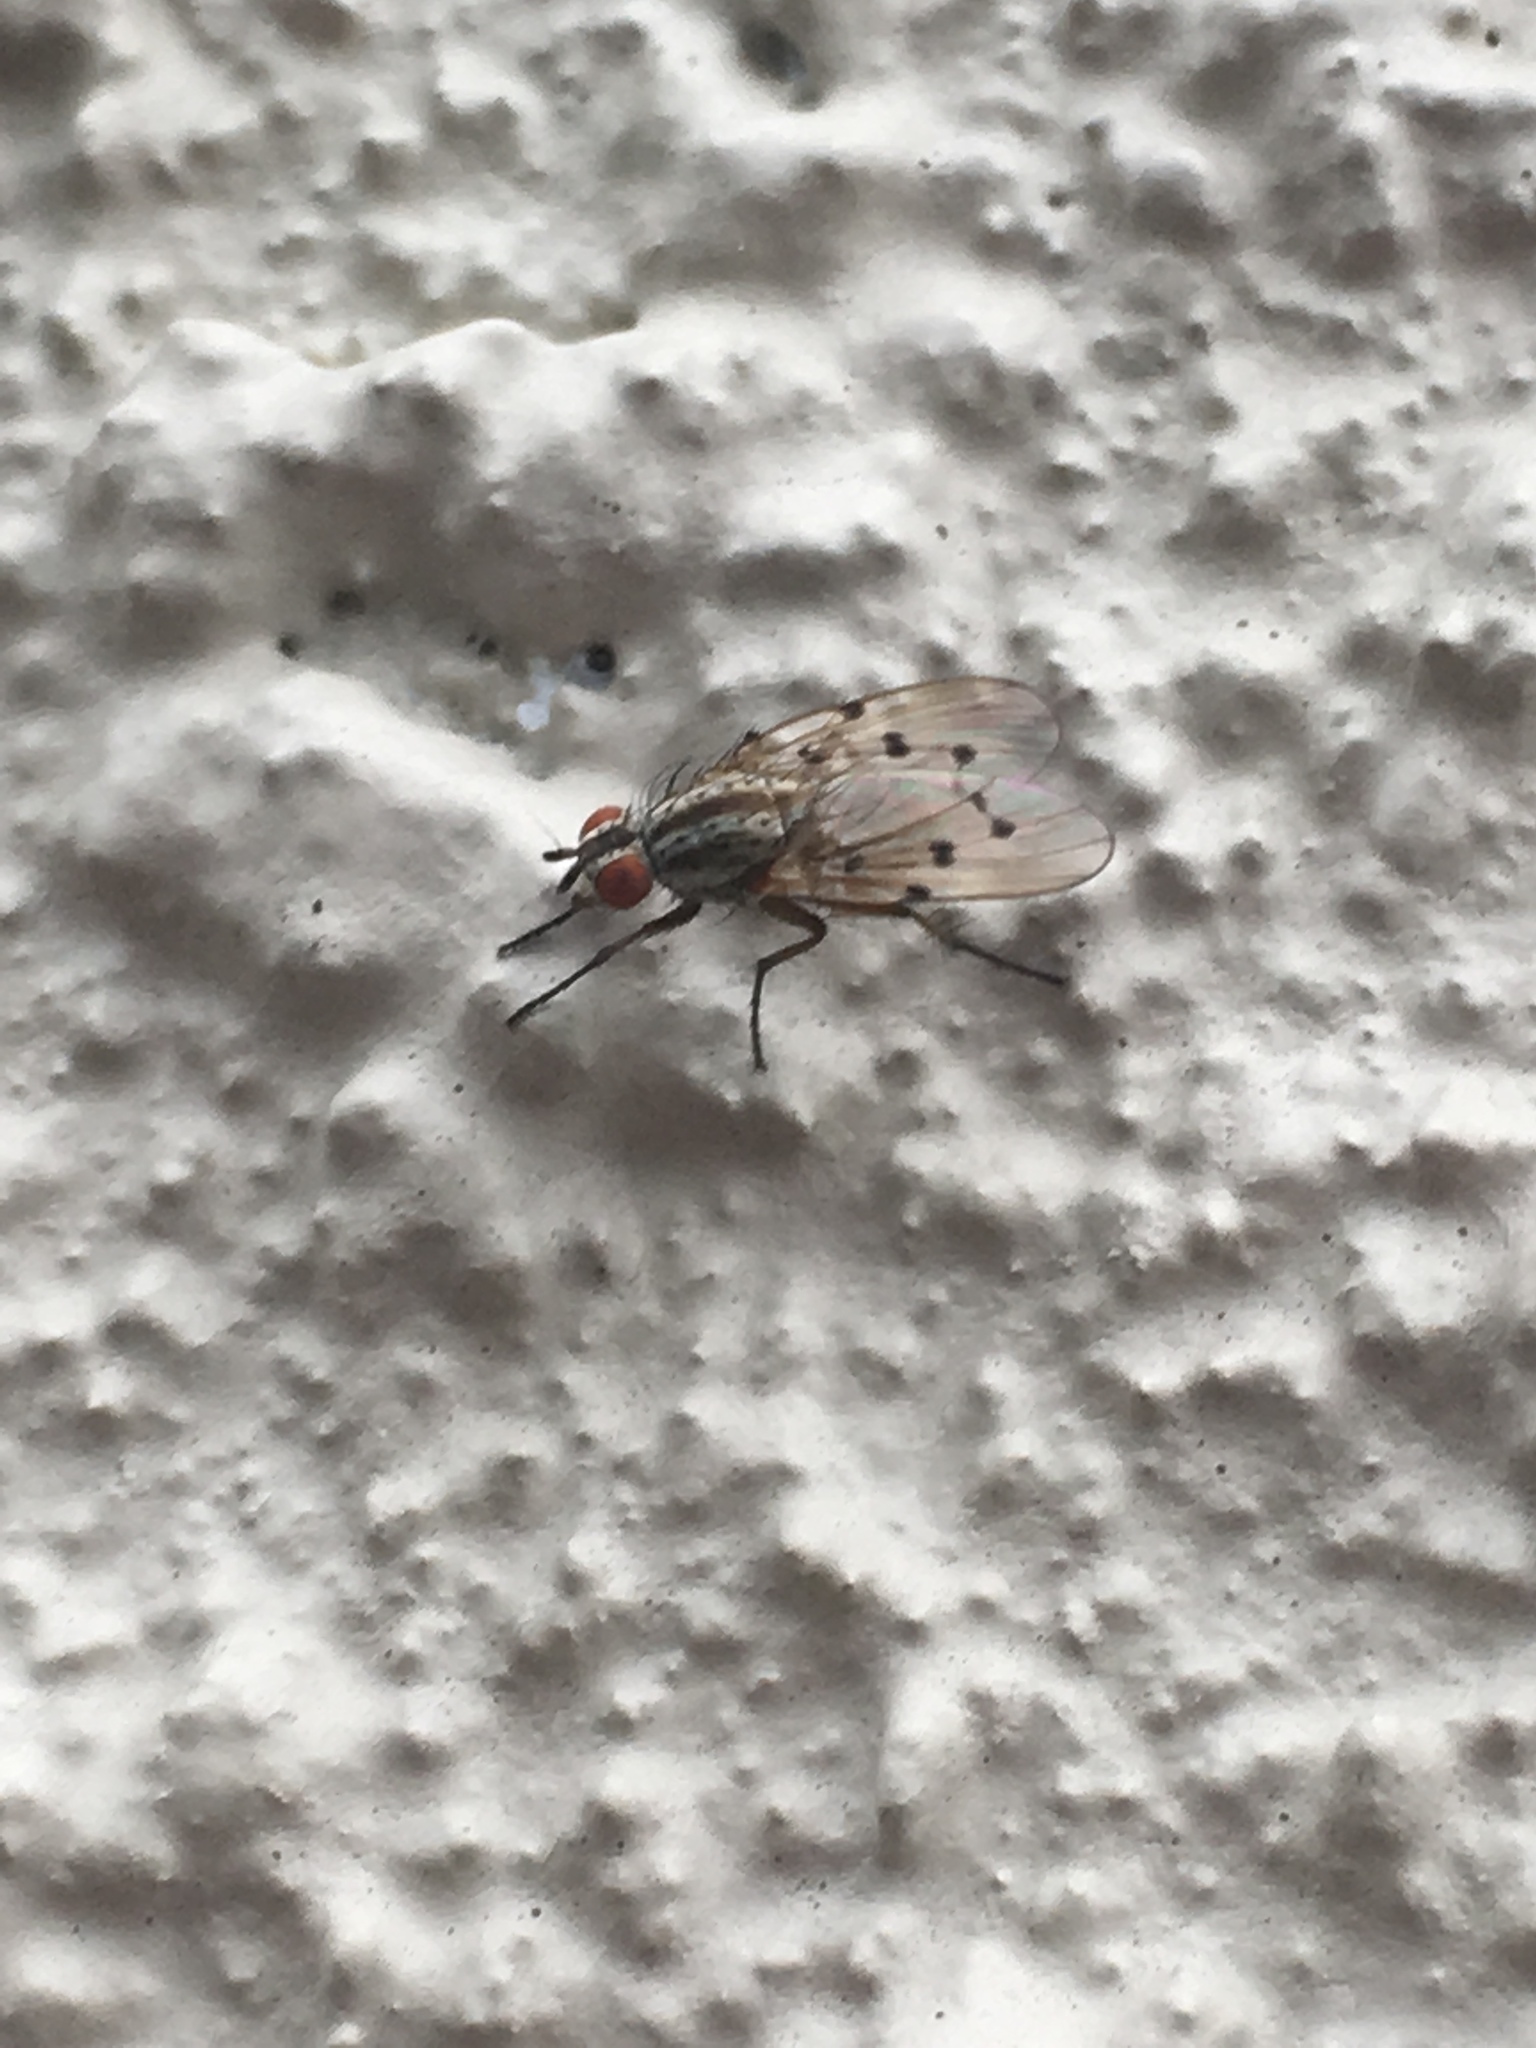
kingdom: Animalia
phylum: Arthropoda
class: Insecta
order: Diptera
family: Anthomyiidae
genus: Anthomyia
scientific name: Anthomyia punctipennis
